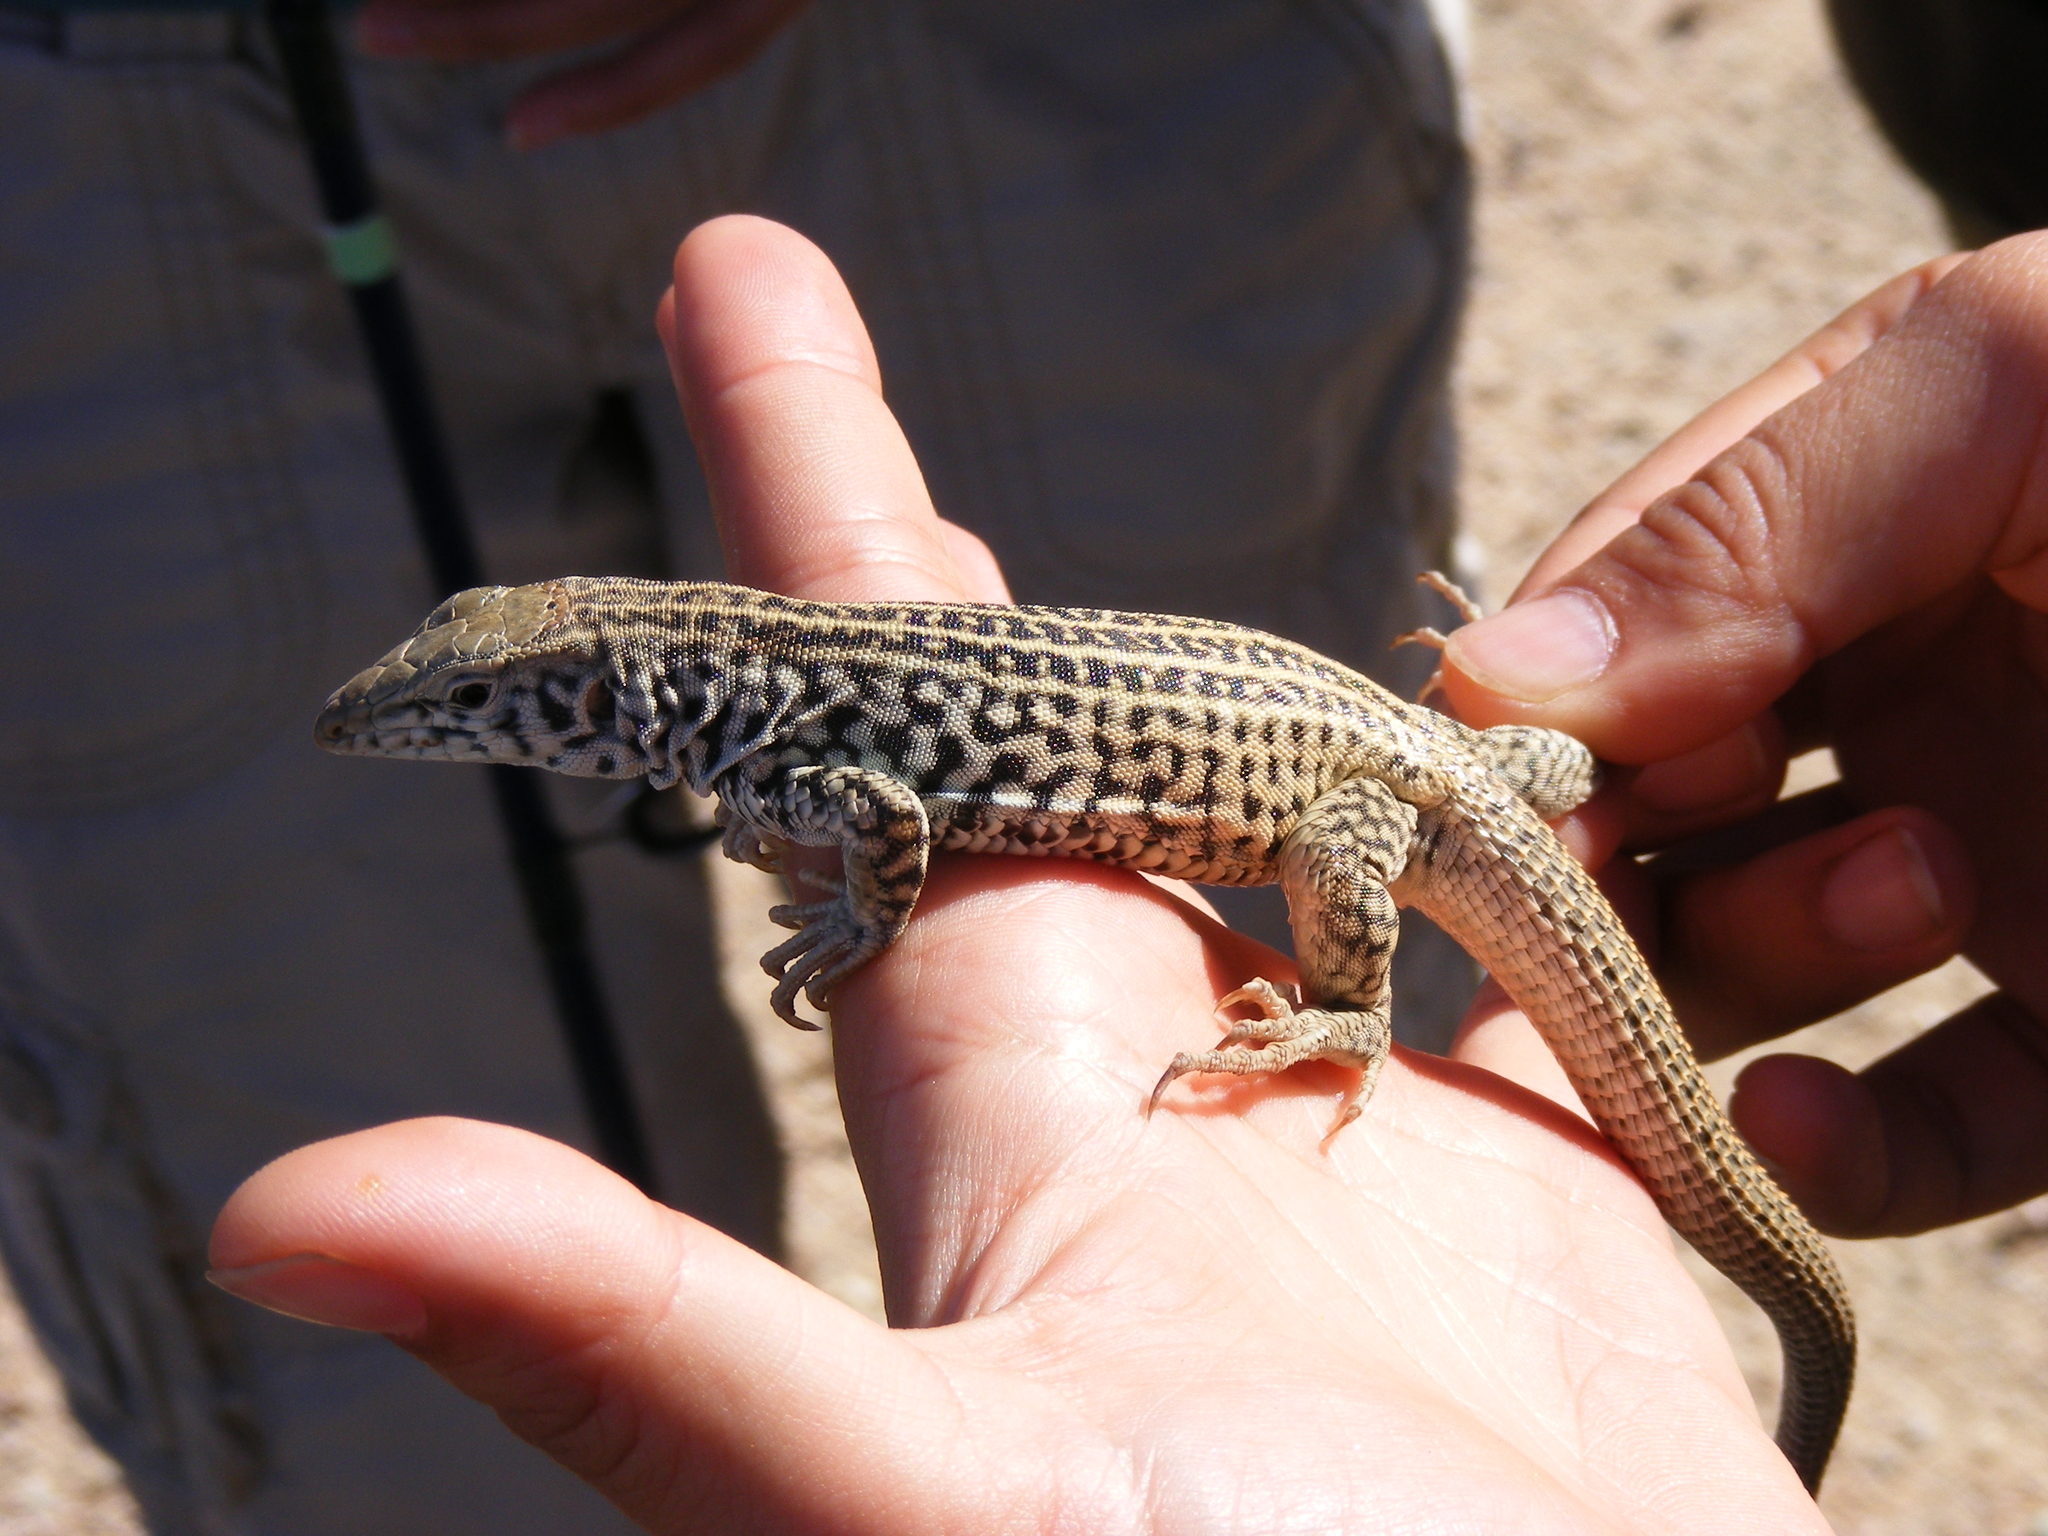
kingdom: Animalia
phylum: Chordata
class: Squamata
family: Teiidae
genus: Aspidoscelis
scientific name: Aspidoscelis tigris
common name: Tiger whiptail
